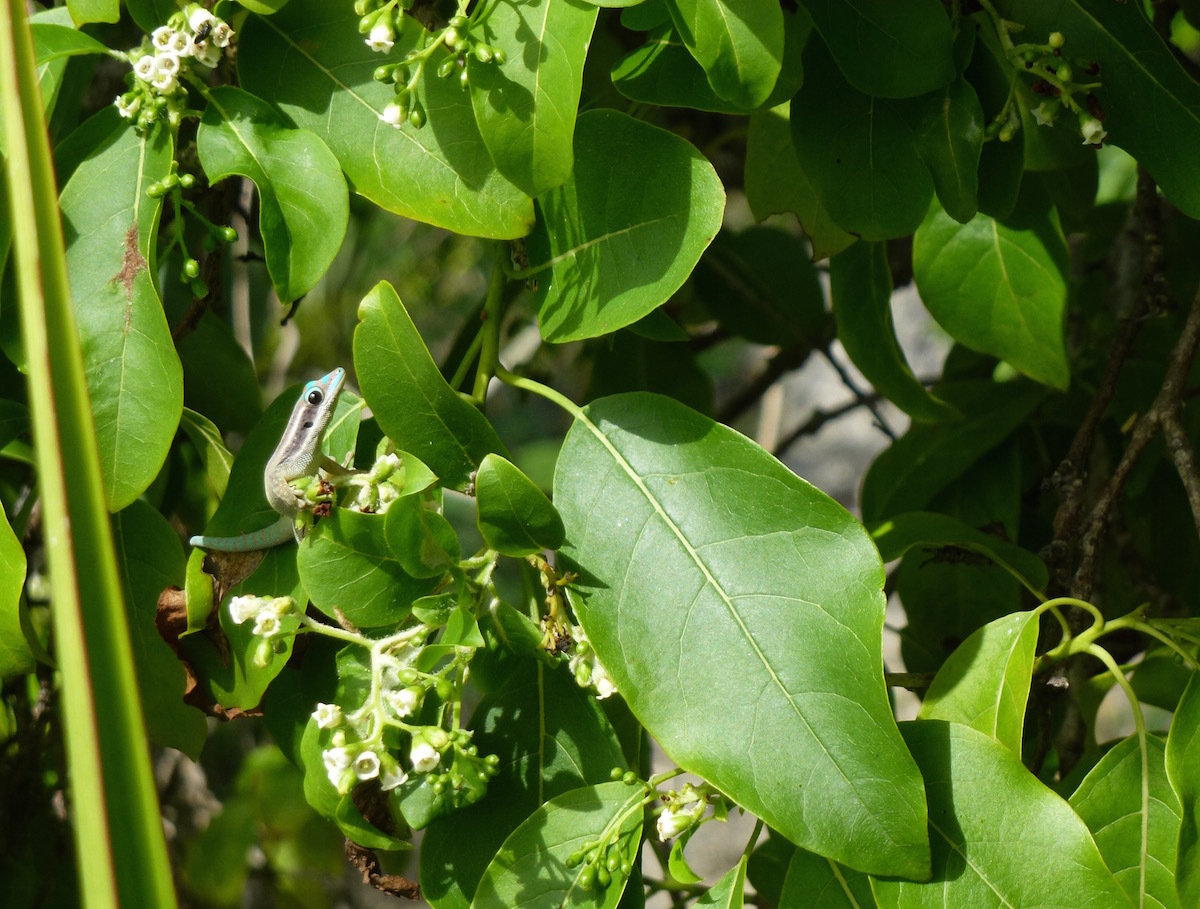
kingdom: Plantae
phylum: Tracheophyta
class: Magnoliopsida
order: Boraginales
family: Ehretiaceae
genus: Bourreria
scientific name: Bourreria petiolaris
